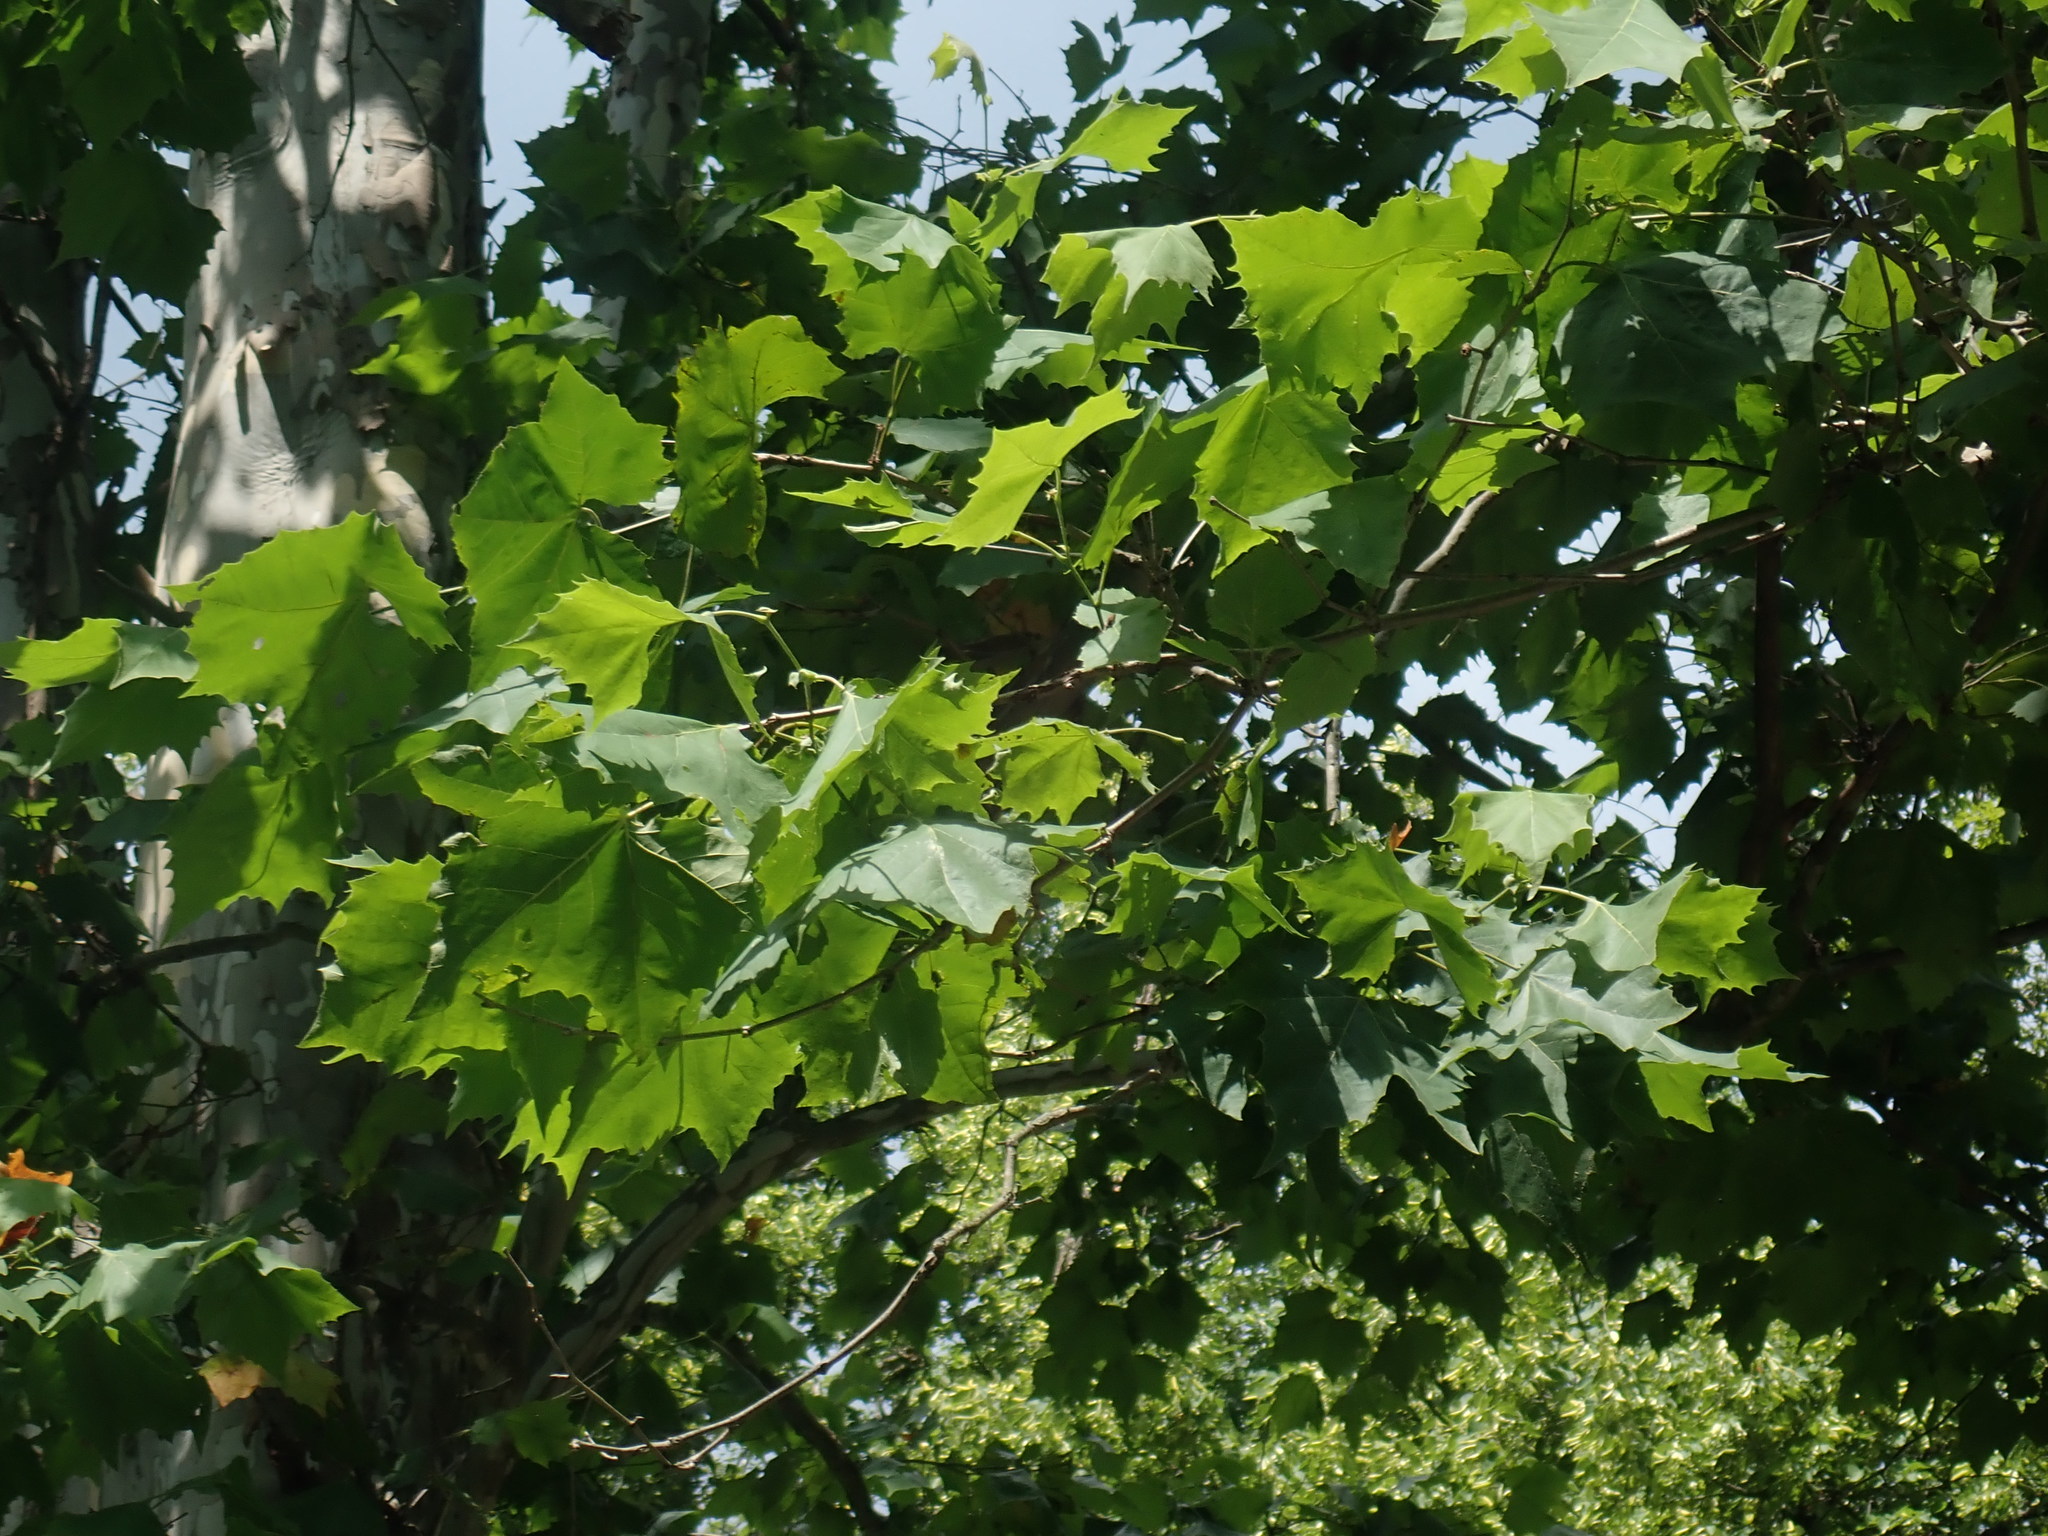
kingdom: Plantae
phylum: Tracheophyta
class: Magnoliopsida
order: Proteales
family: Platanaceae
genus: Platanus
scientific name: Platanus occidentalis
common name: American sycamore
